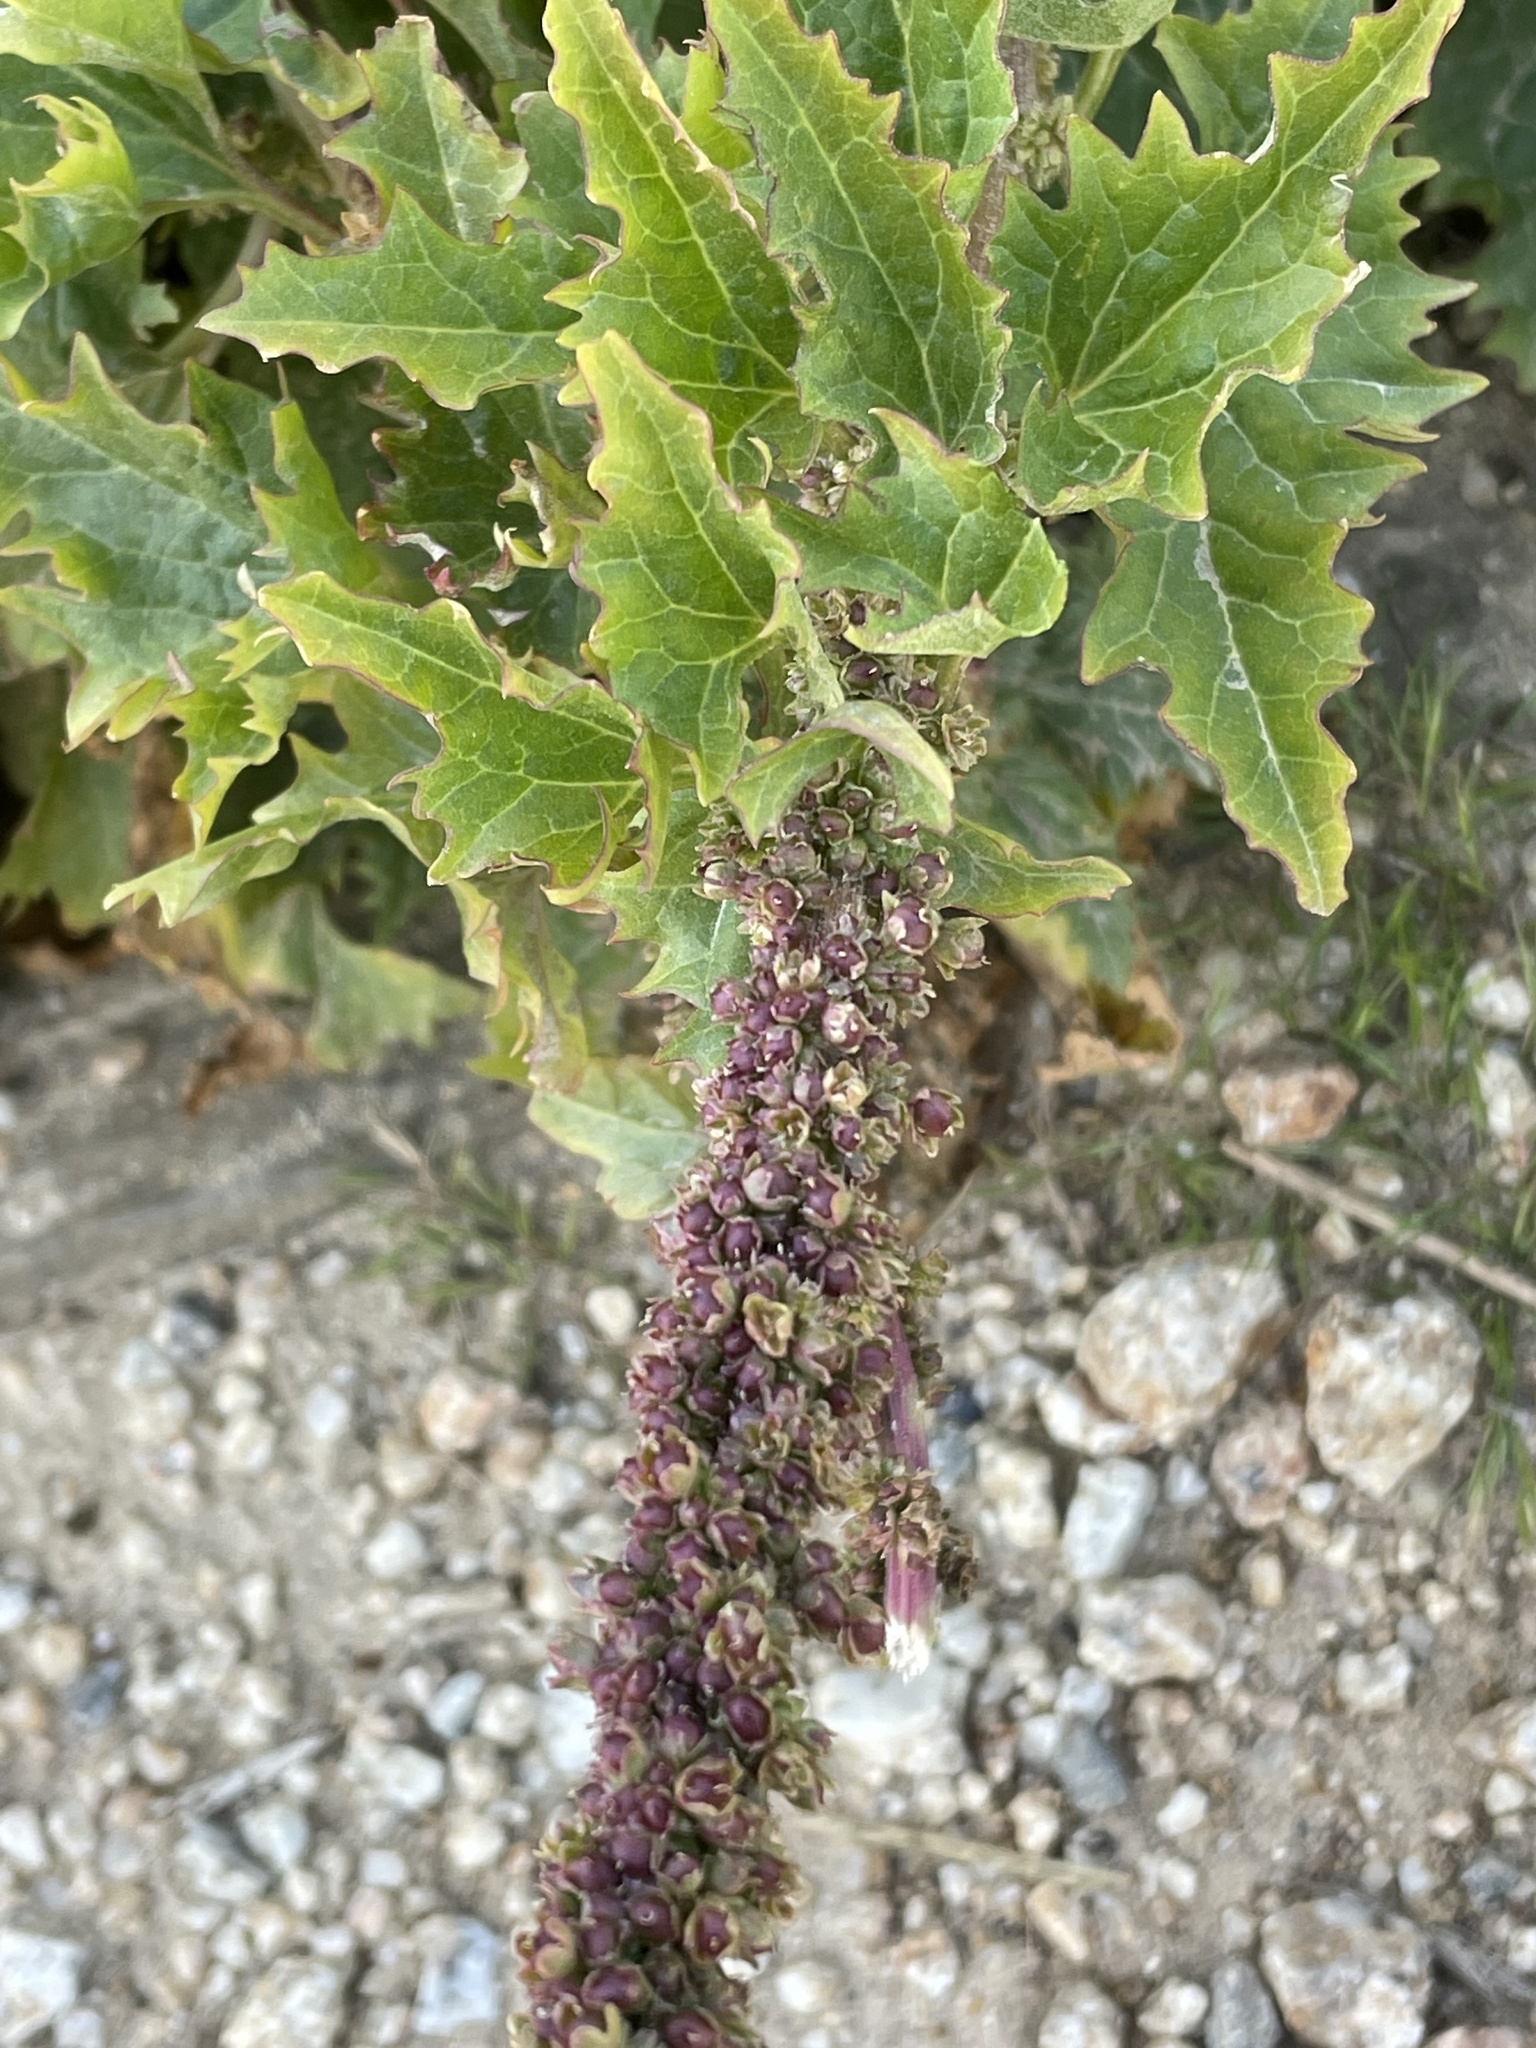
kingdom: Plantae
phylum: Tracheophyta
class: Magnoliopsida
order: Caryophyllales
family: Amaranthaceae
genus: Blitum
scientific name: Blitum californicum
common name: California goosefoot
